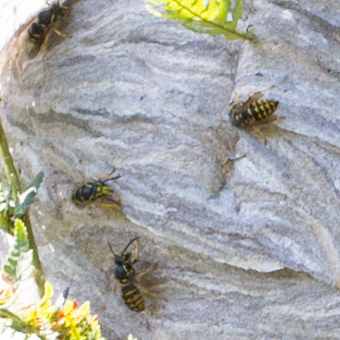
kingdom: Animalia
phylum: Arthropoda
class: Insecta
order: Hymenoptera
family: Vespidae
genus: Dolichovespula
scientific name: Dolichovespula arenaria
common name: Aerial yellowjacket
